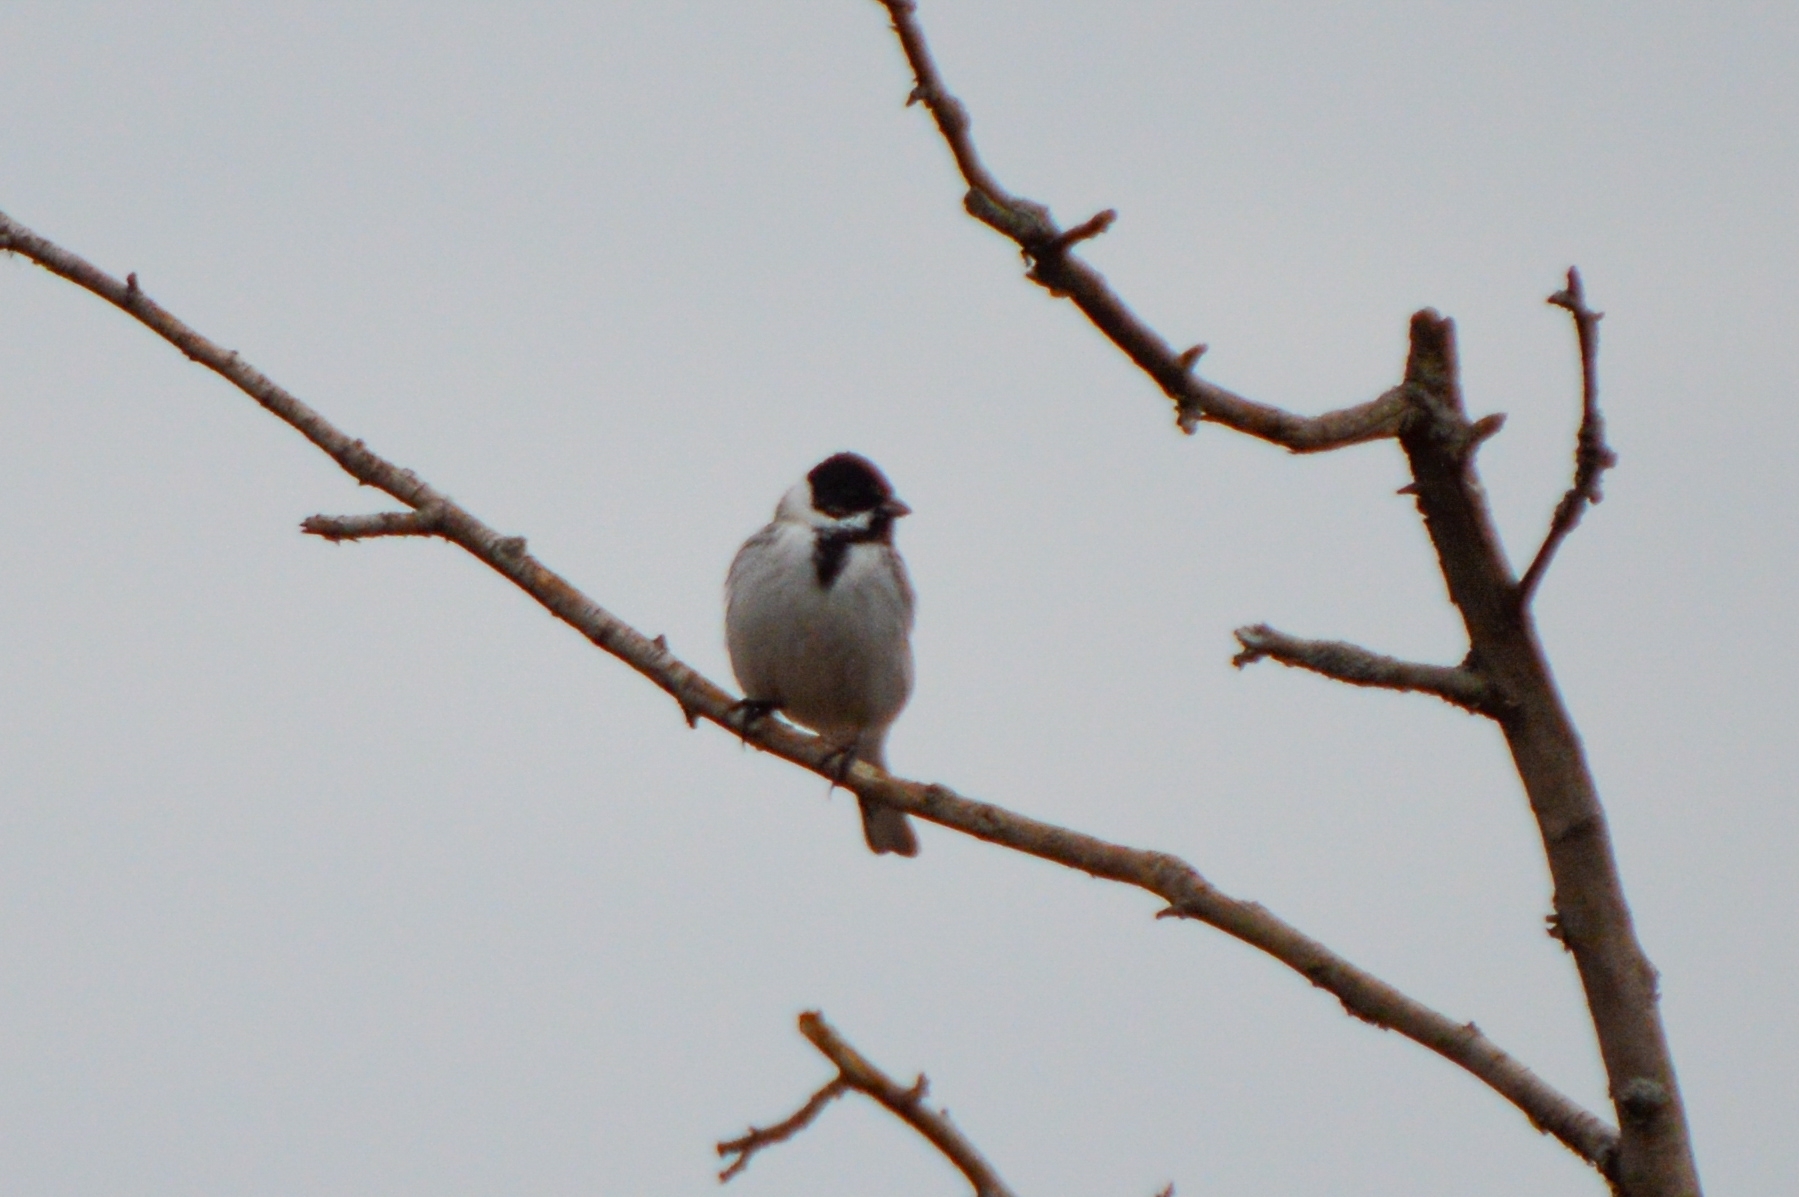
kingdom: Animalia
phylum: Chordata
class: Aves
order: Passeriformes
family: Emberizidae
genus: Emberiza
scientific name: Emberiza schoeniclus
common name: Reed bunting
